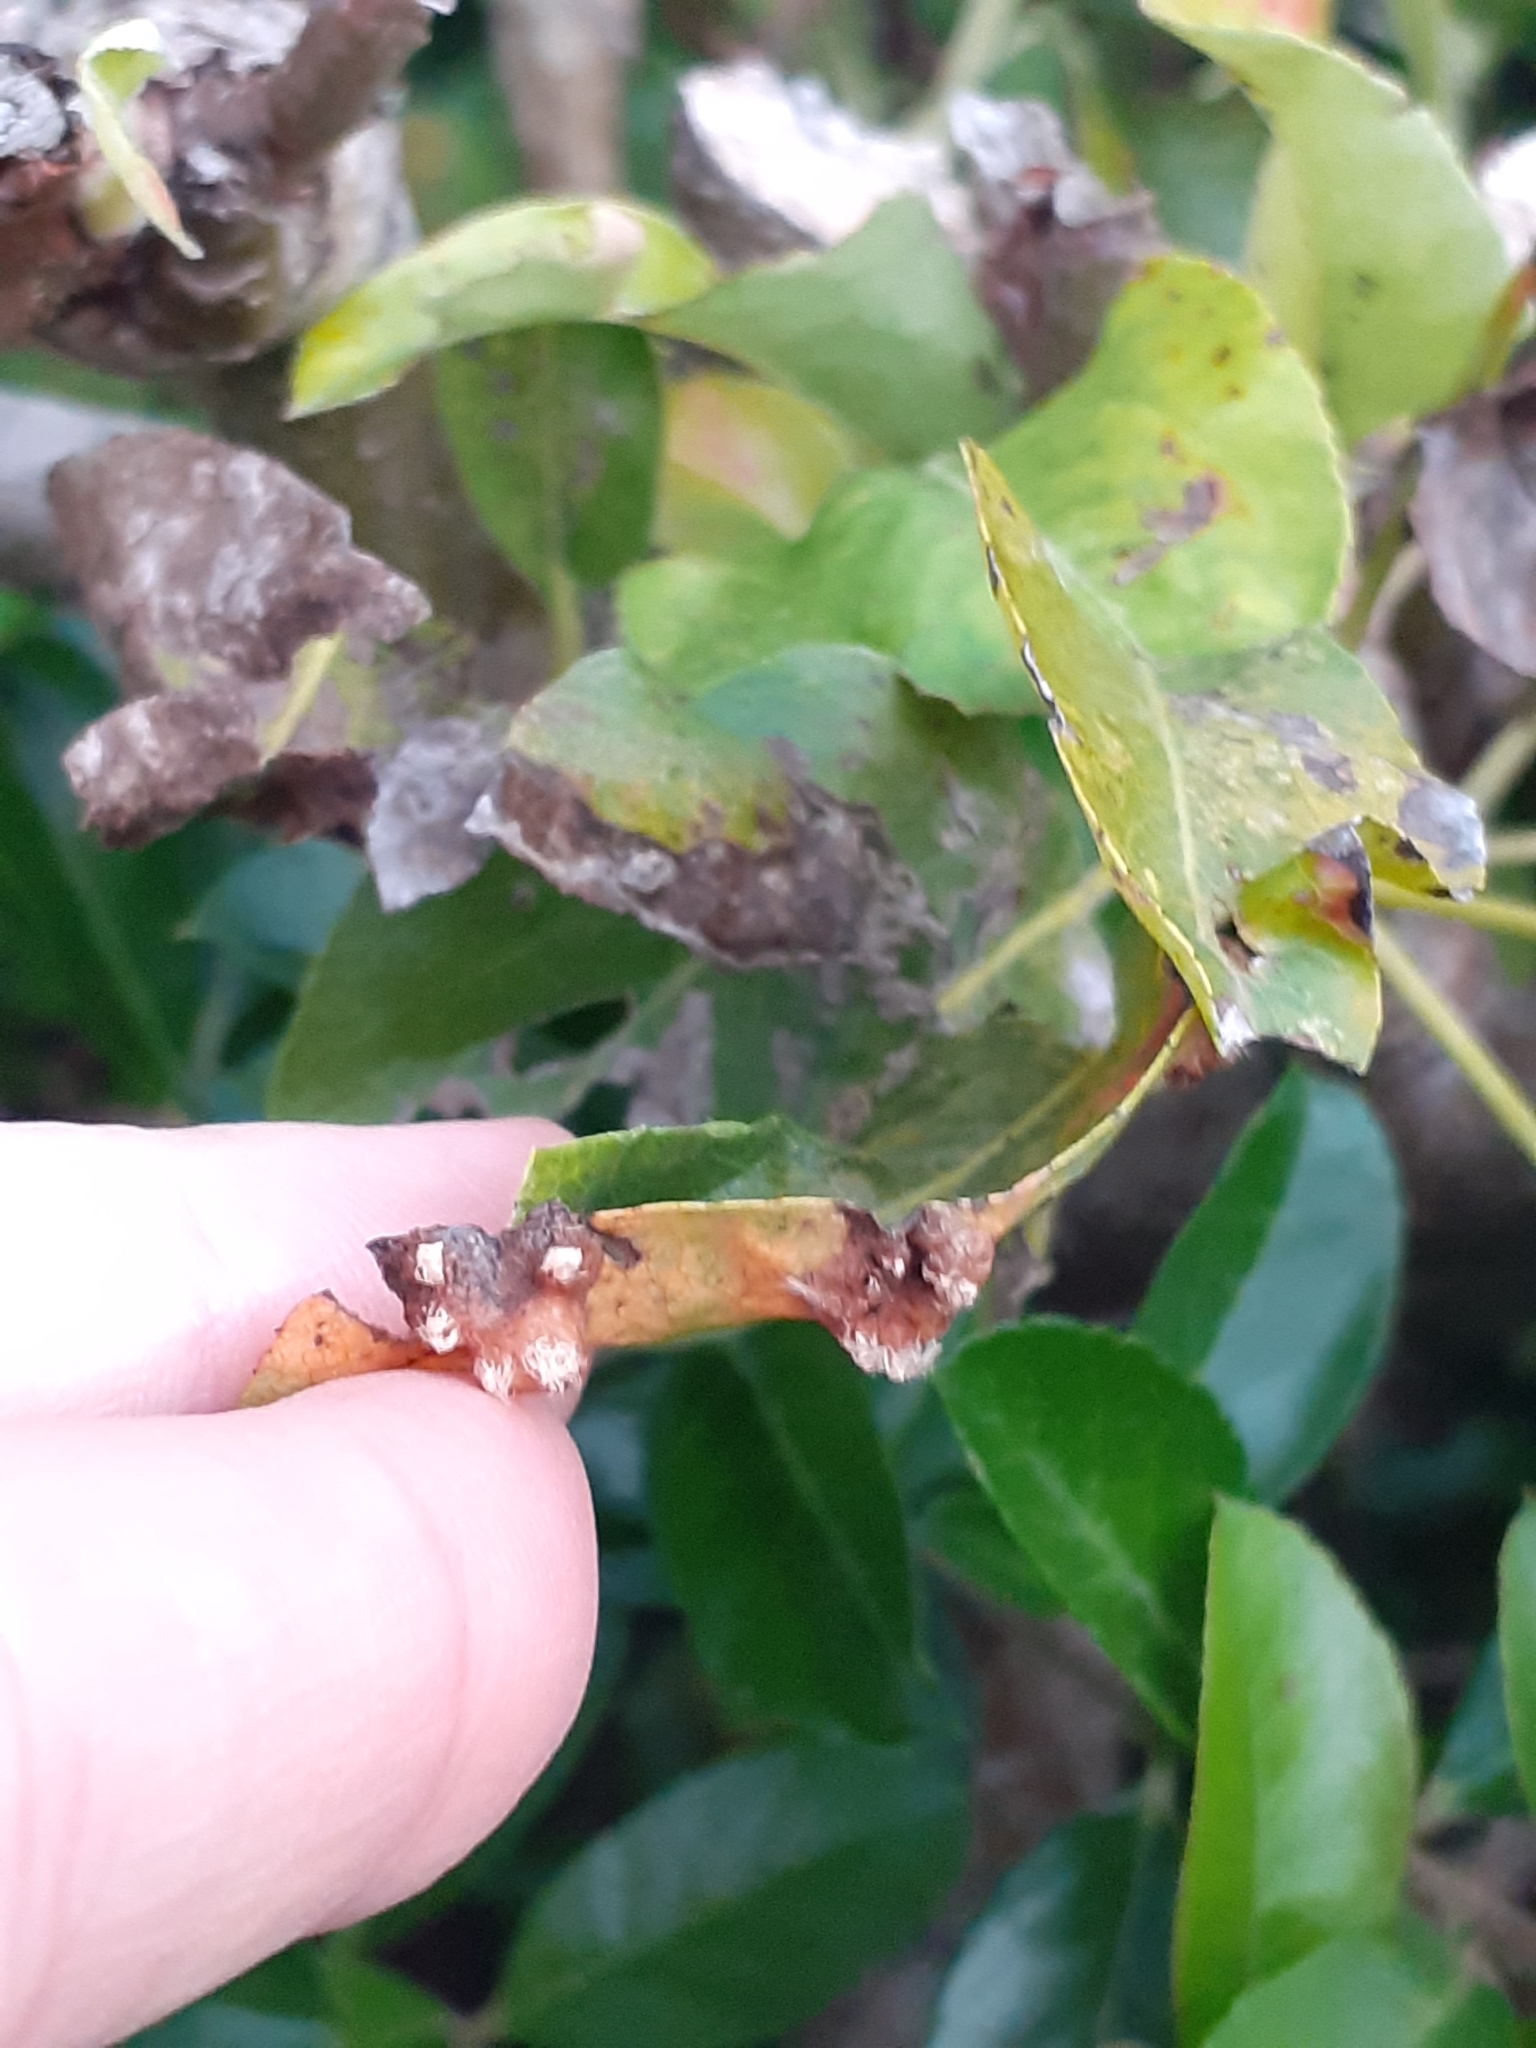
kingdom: Fungi
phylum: Basidiomycota
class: Pucciniomycetes
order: Pucciniales
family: Gymnosporangiaceae
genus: Gymnosporangium
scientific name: Gymnosporangium sabinae
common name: Pear trellis rust fungus
